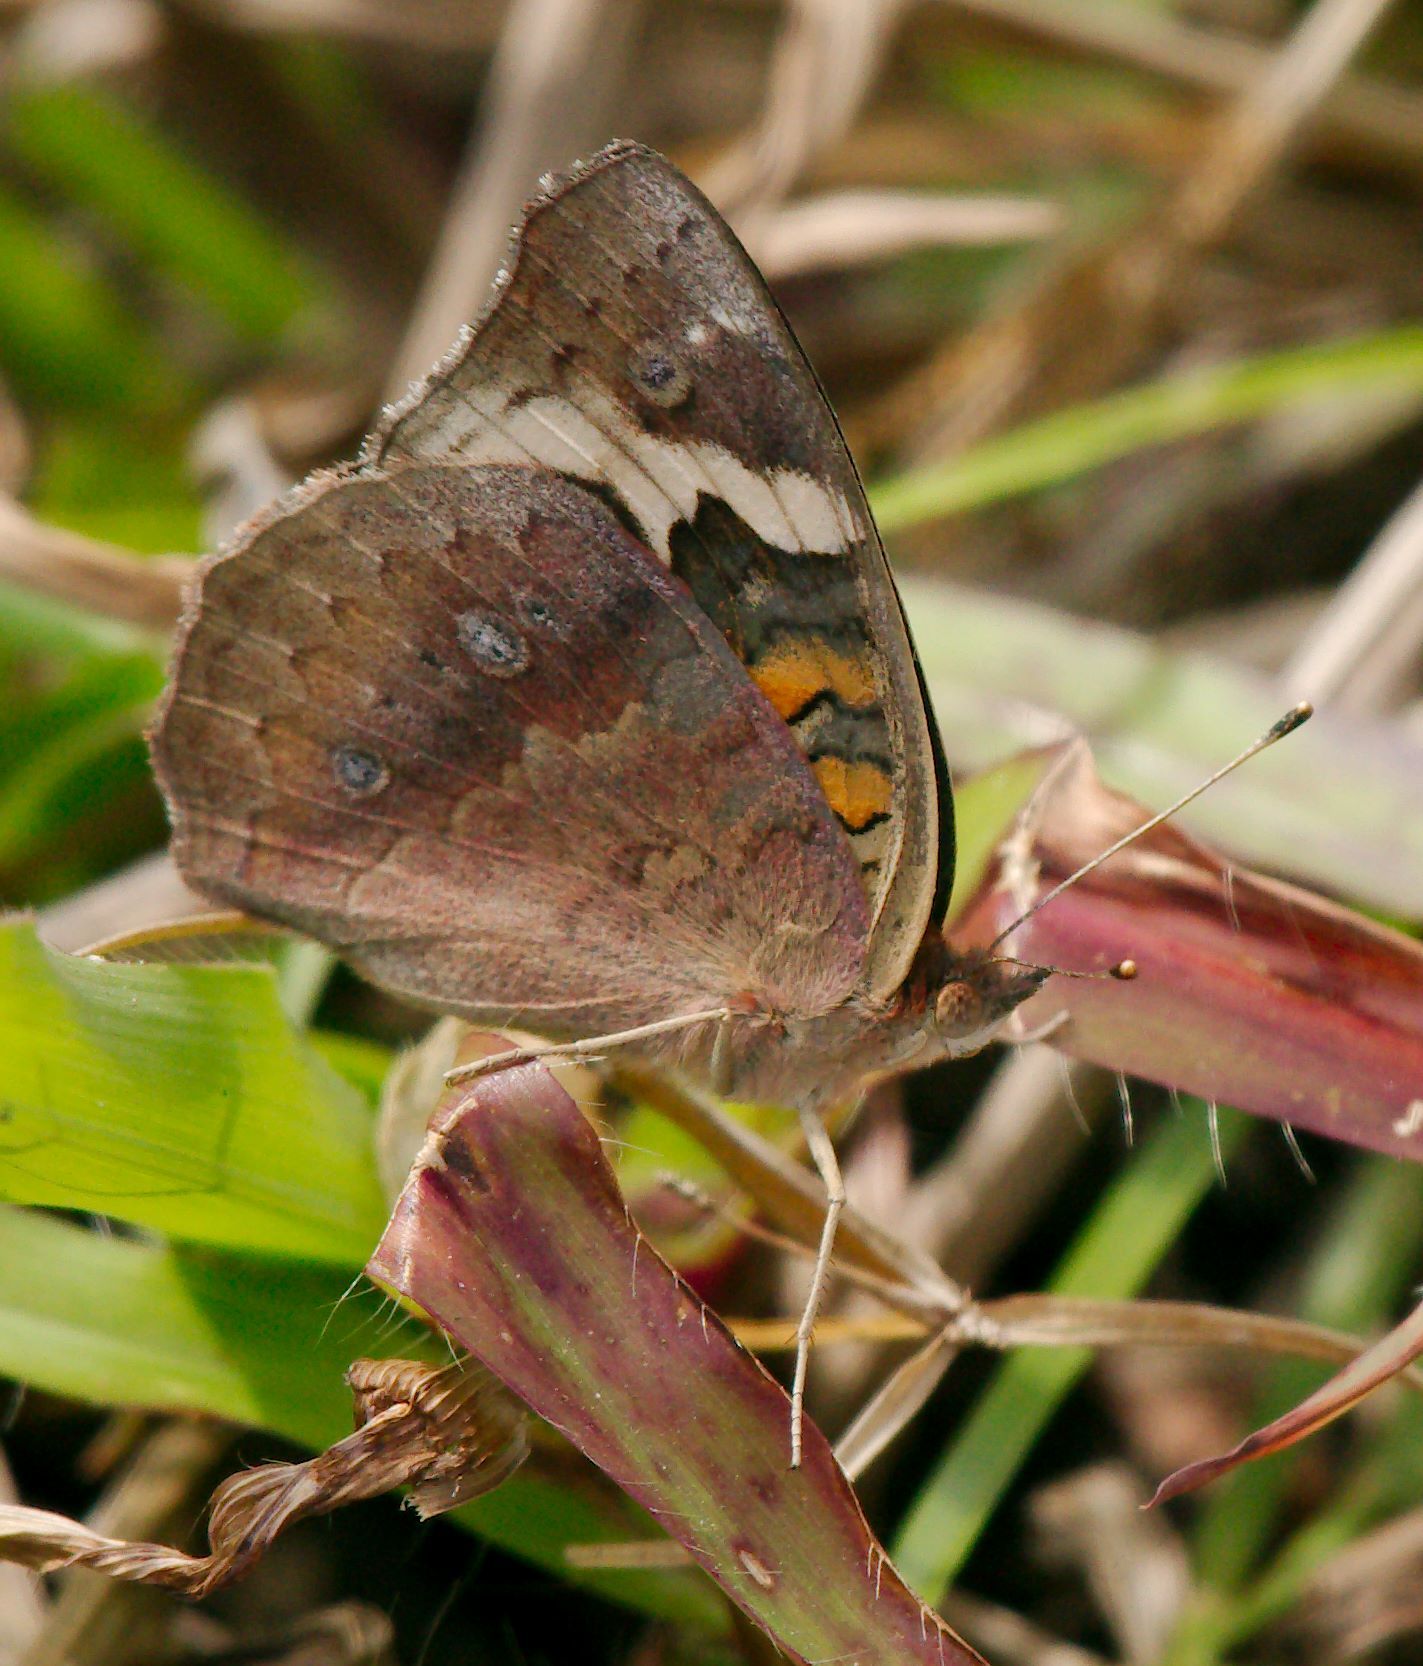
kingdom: Animalia
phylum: Arthropoda
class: Insecta
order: Lepidoptera
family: Nymphalidae
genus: Junonia
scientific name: Junonia coenia
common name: Common buckeye
